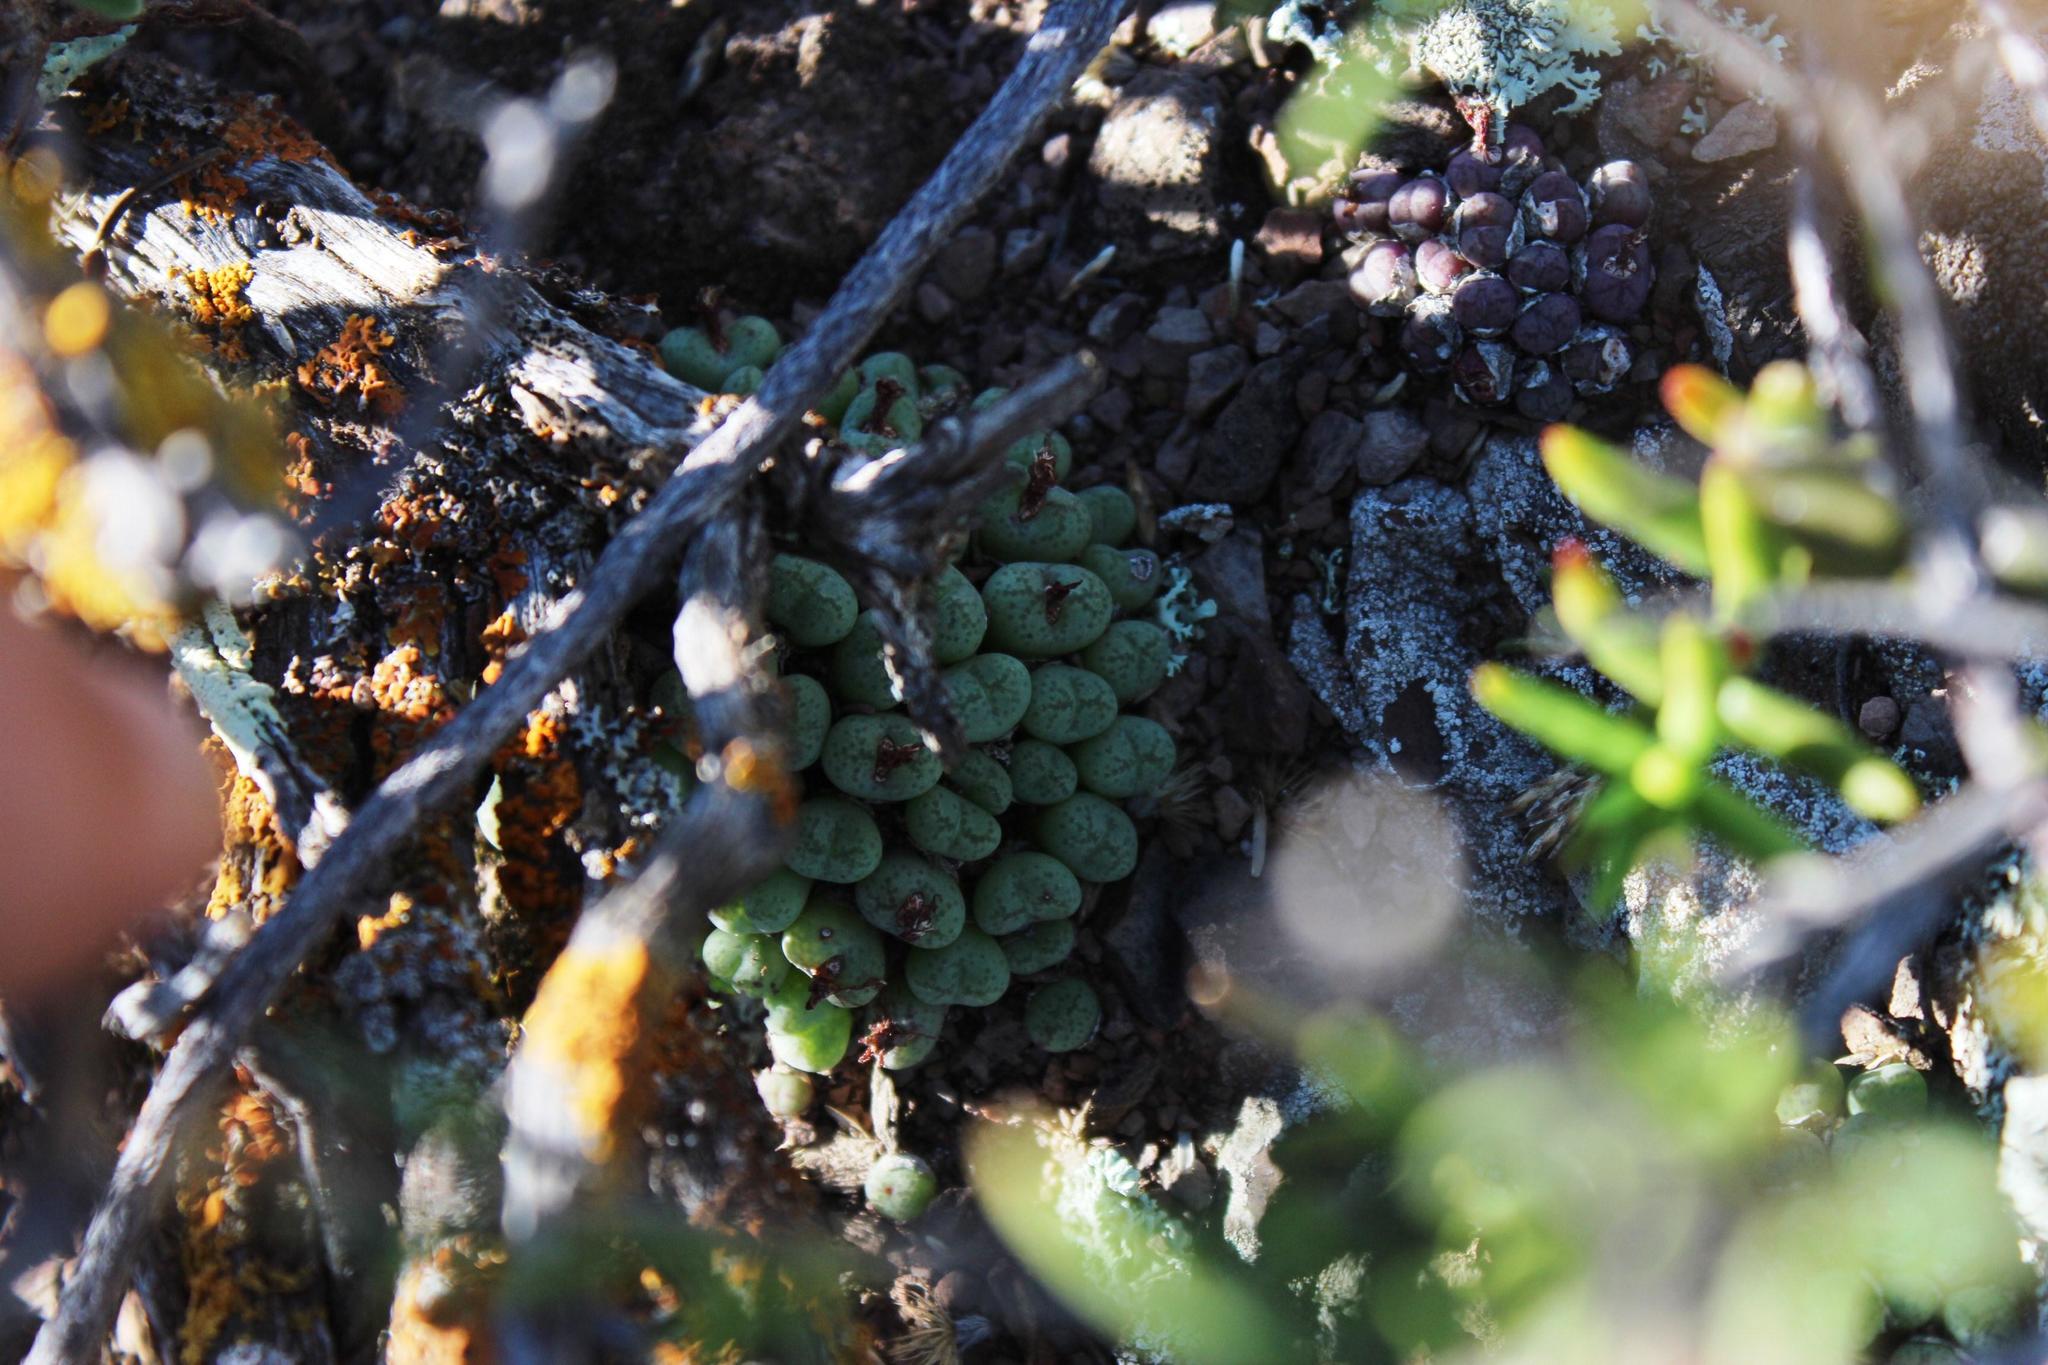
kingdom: Plantae
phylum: Tracheophyta
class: Magnoliopsida
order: Caryophyllales
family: Aizoaceae
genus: Conophytum
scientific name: Conophytum ficiforme
